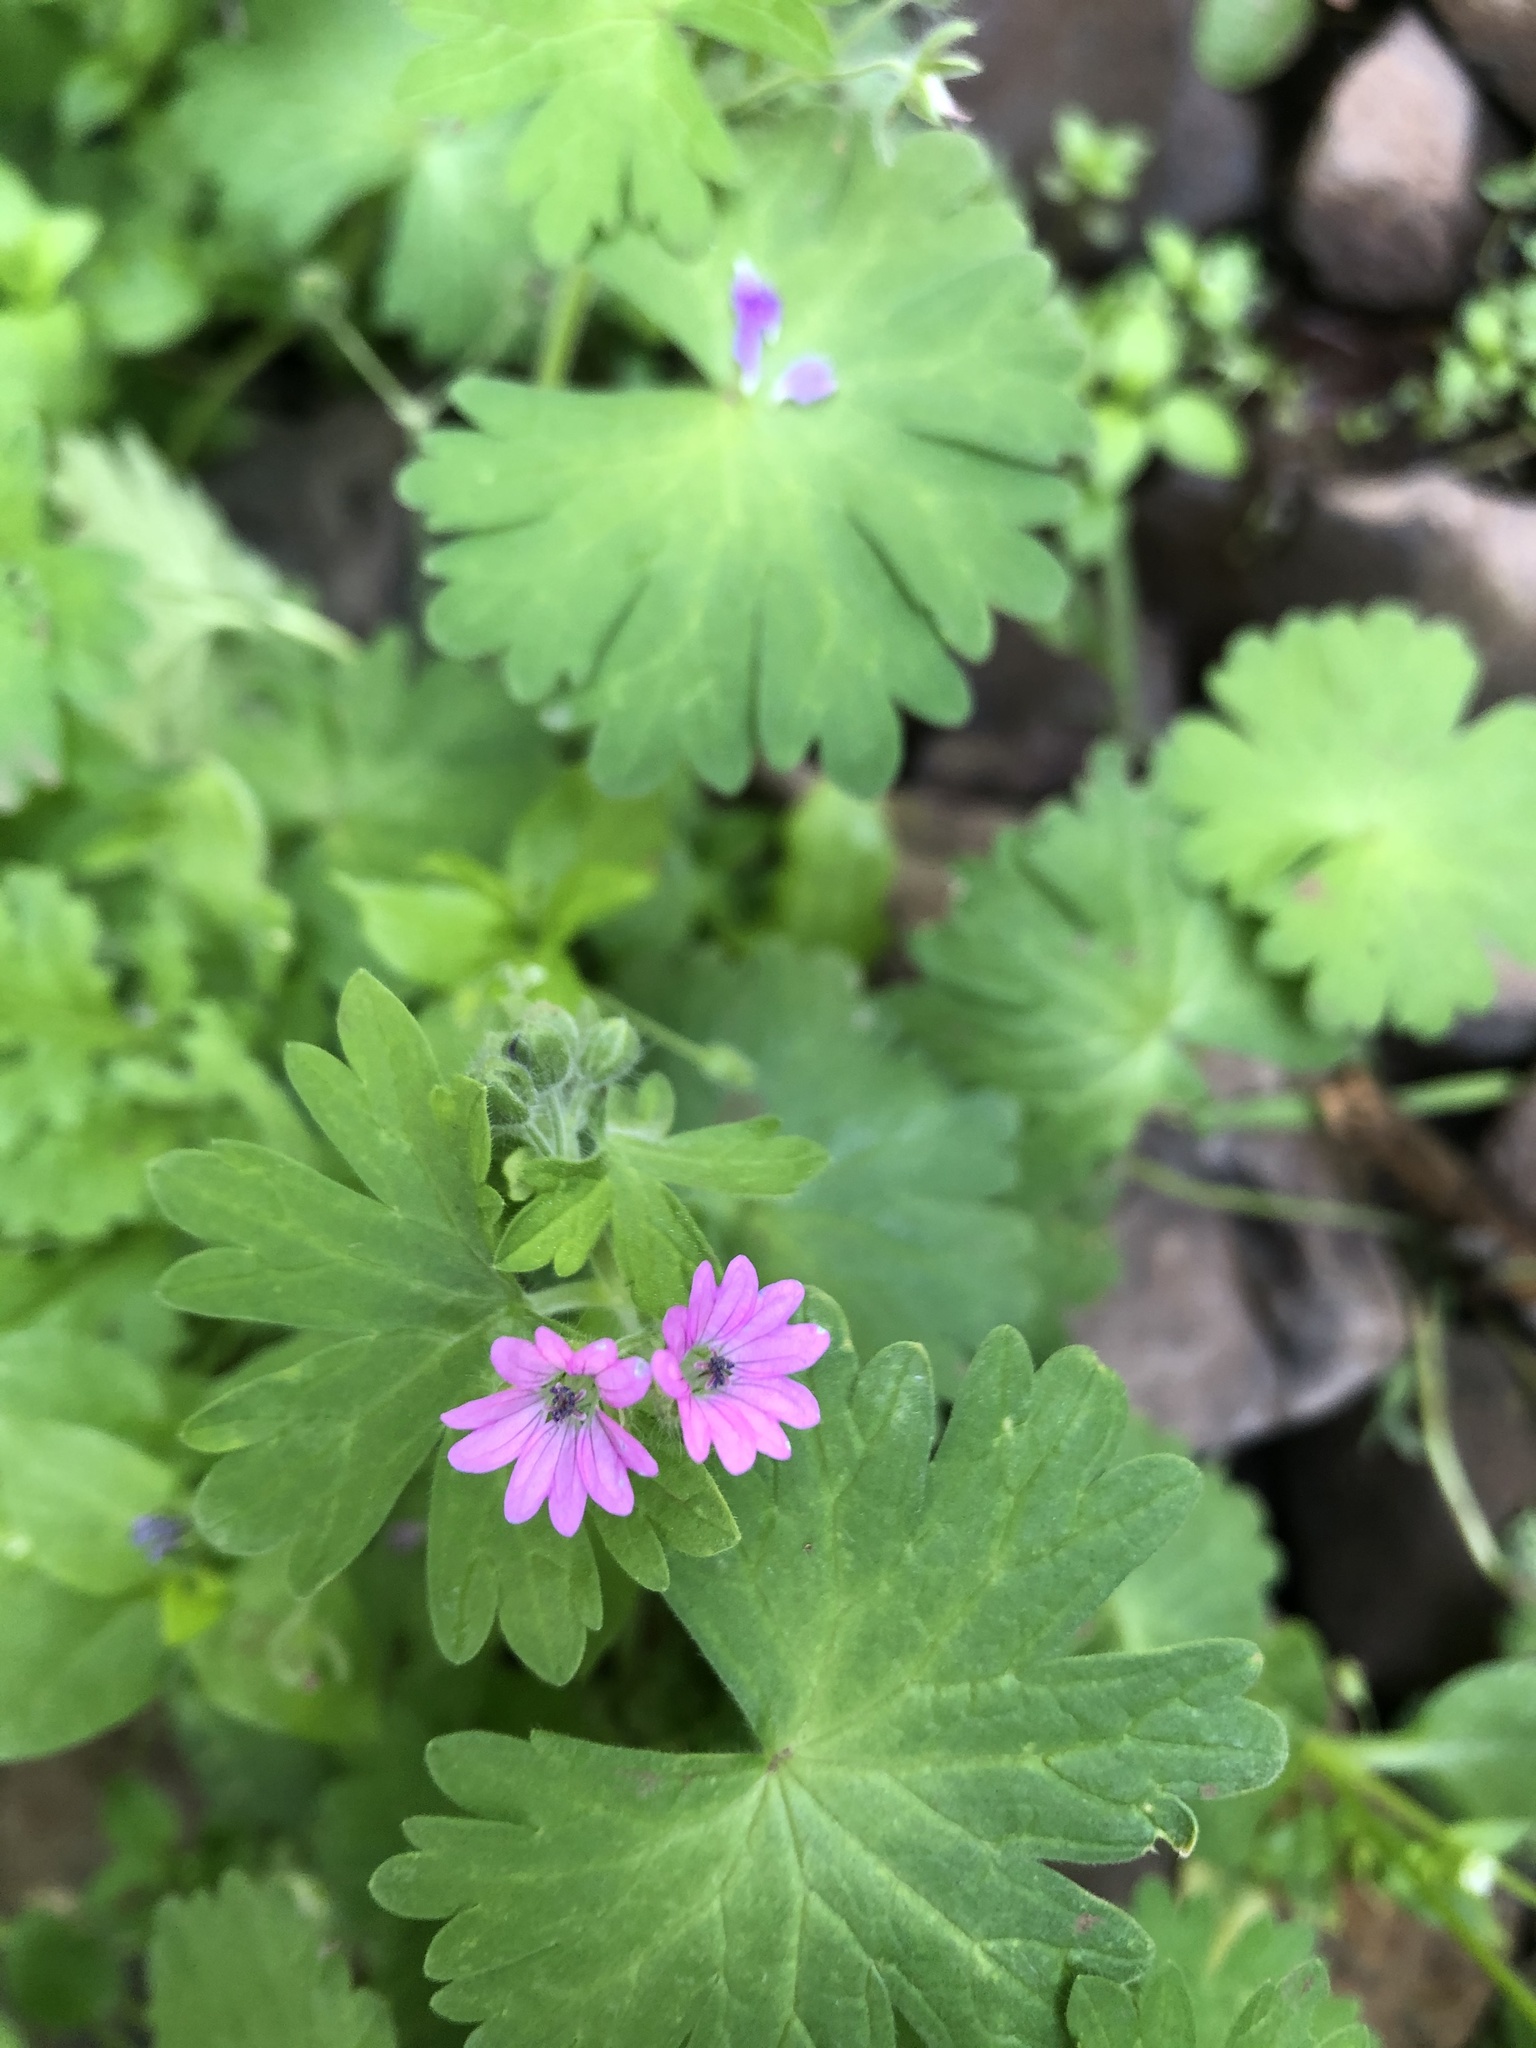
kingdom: Plantae
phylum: Tracheophyta
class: Magnoliopsida
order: Geraniales
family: Geraniaceae
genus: Geranium
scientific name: Geranium molle
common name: Dove's-foot crane's-bill
